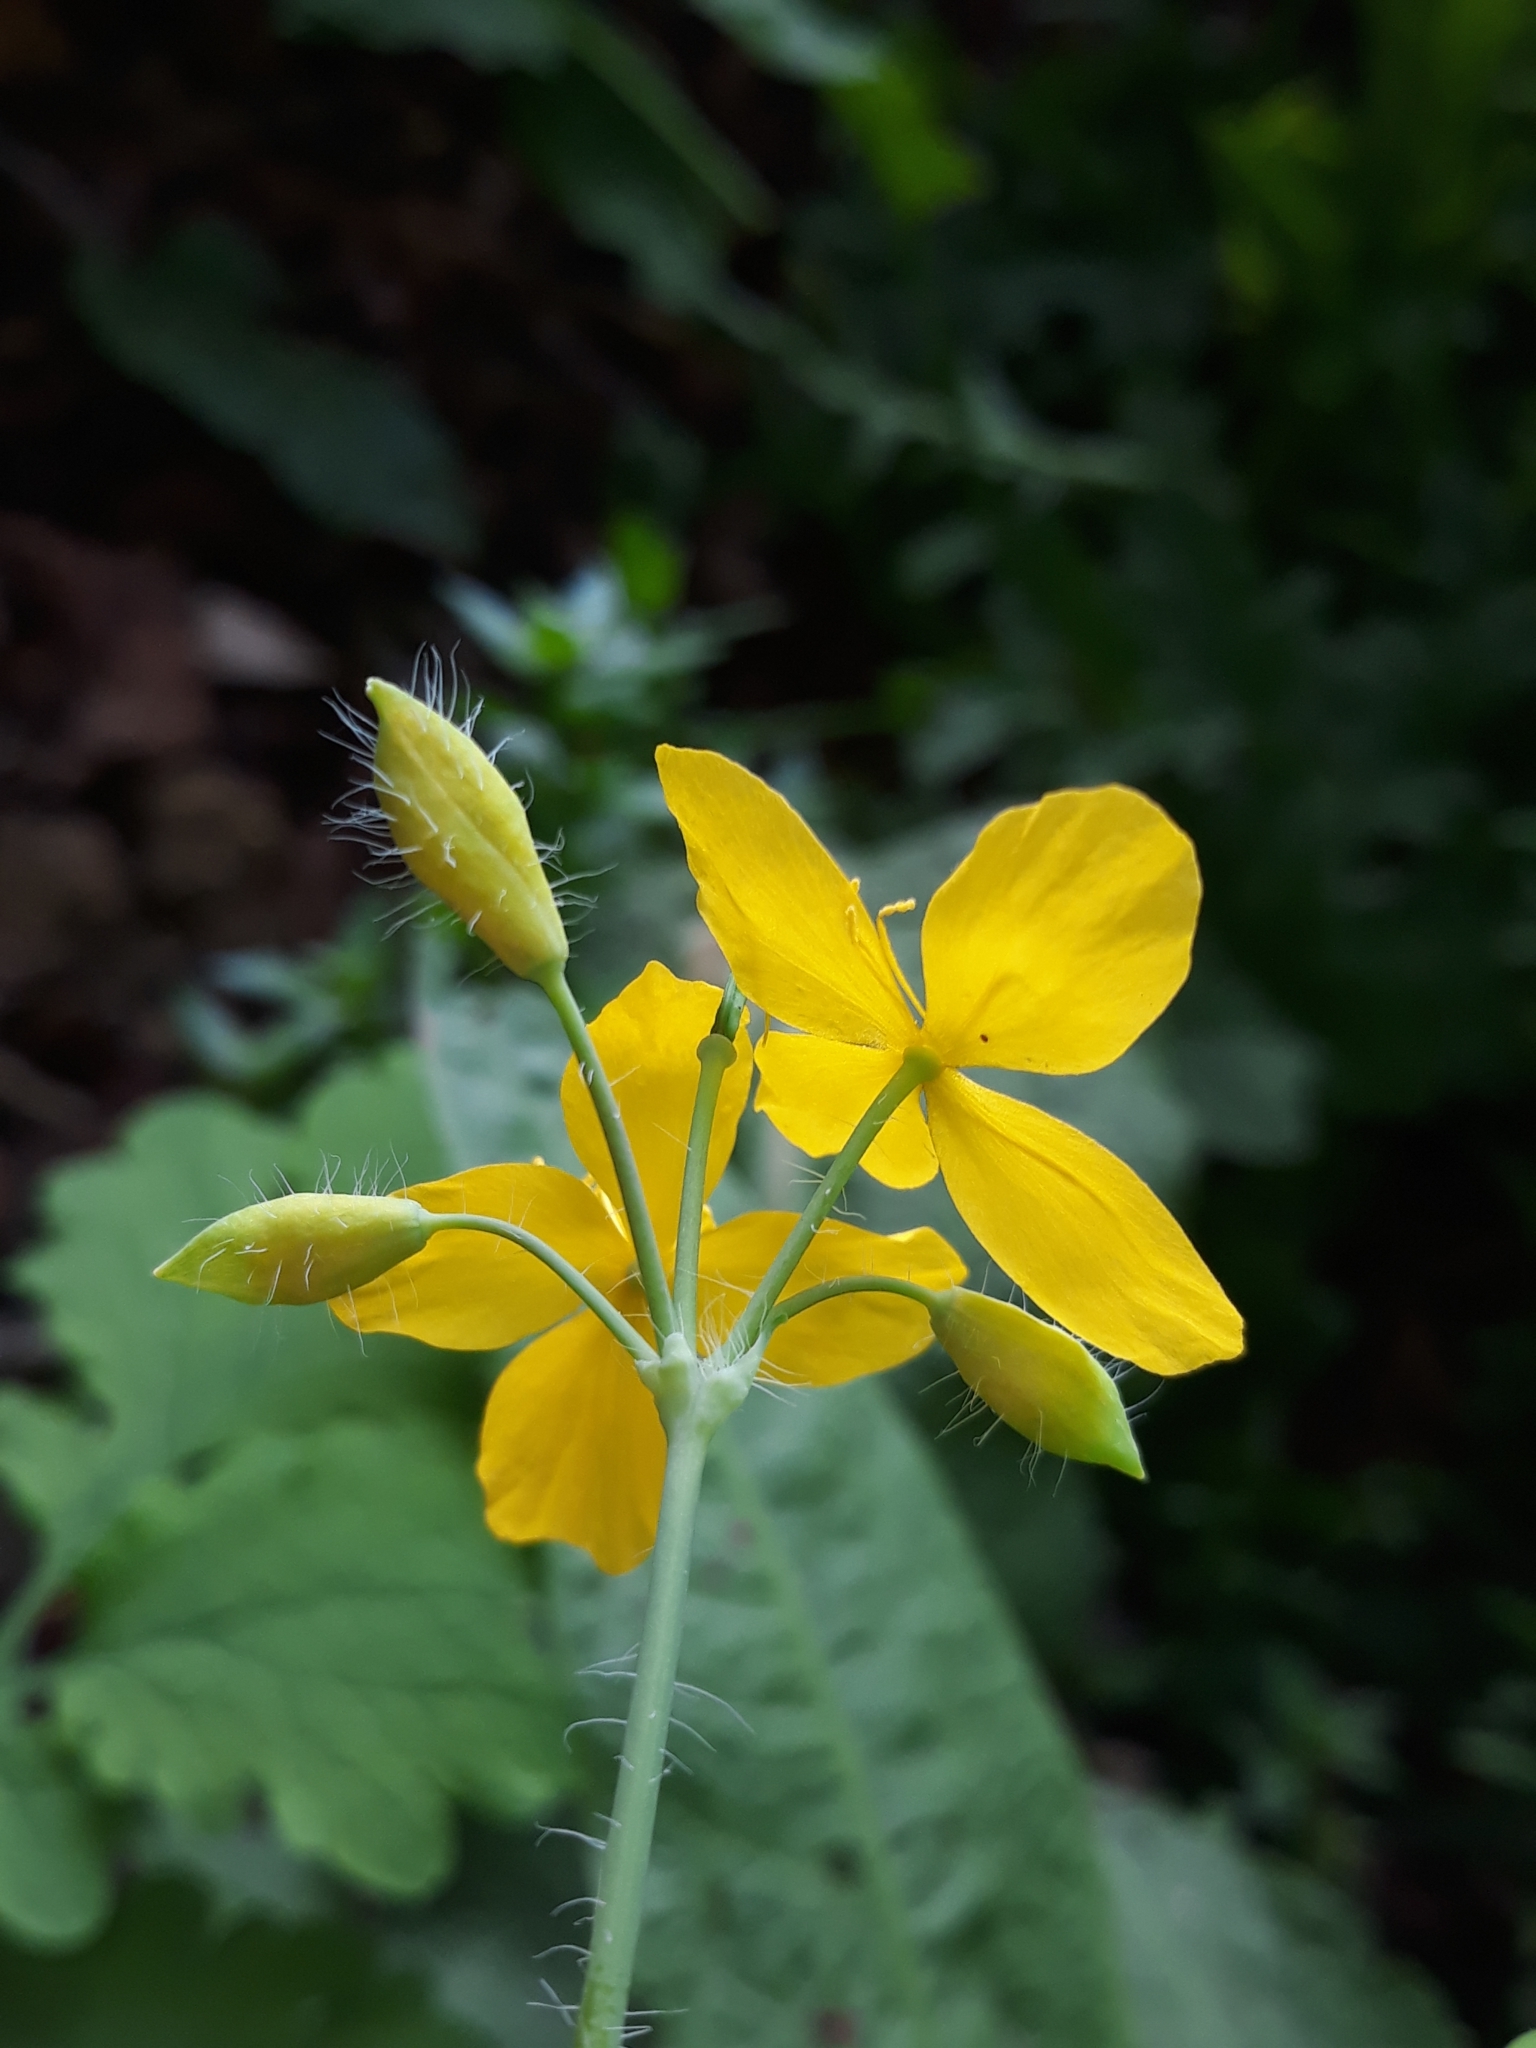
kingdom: Plantae
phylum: Tracheophyta
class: Magnoliopsida
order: Ranunculales
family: Papaveraceae
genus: Chelidonium
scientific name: Chelidonium majus
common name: Greater celandine
